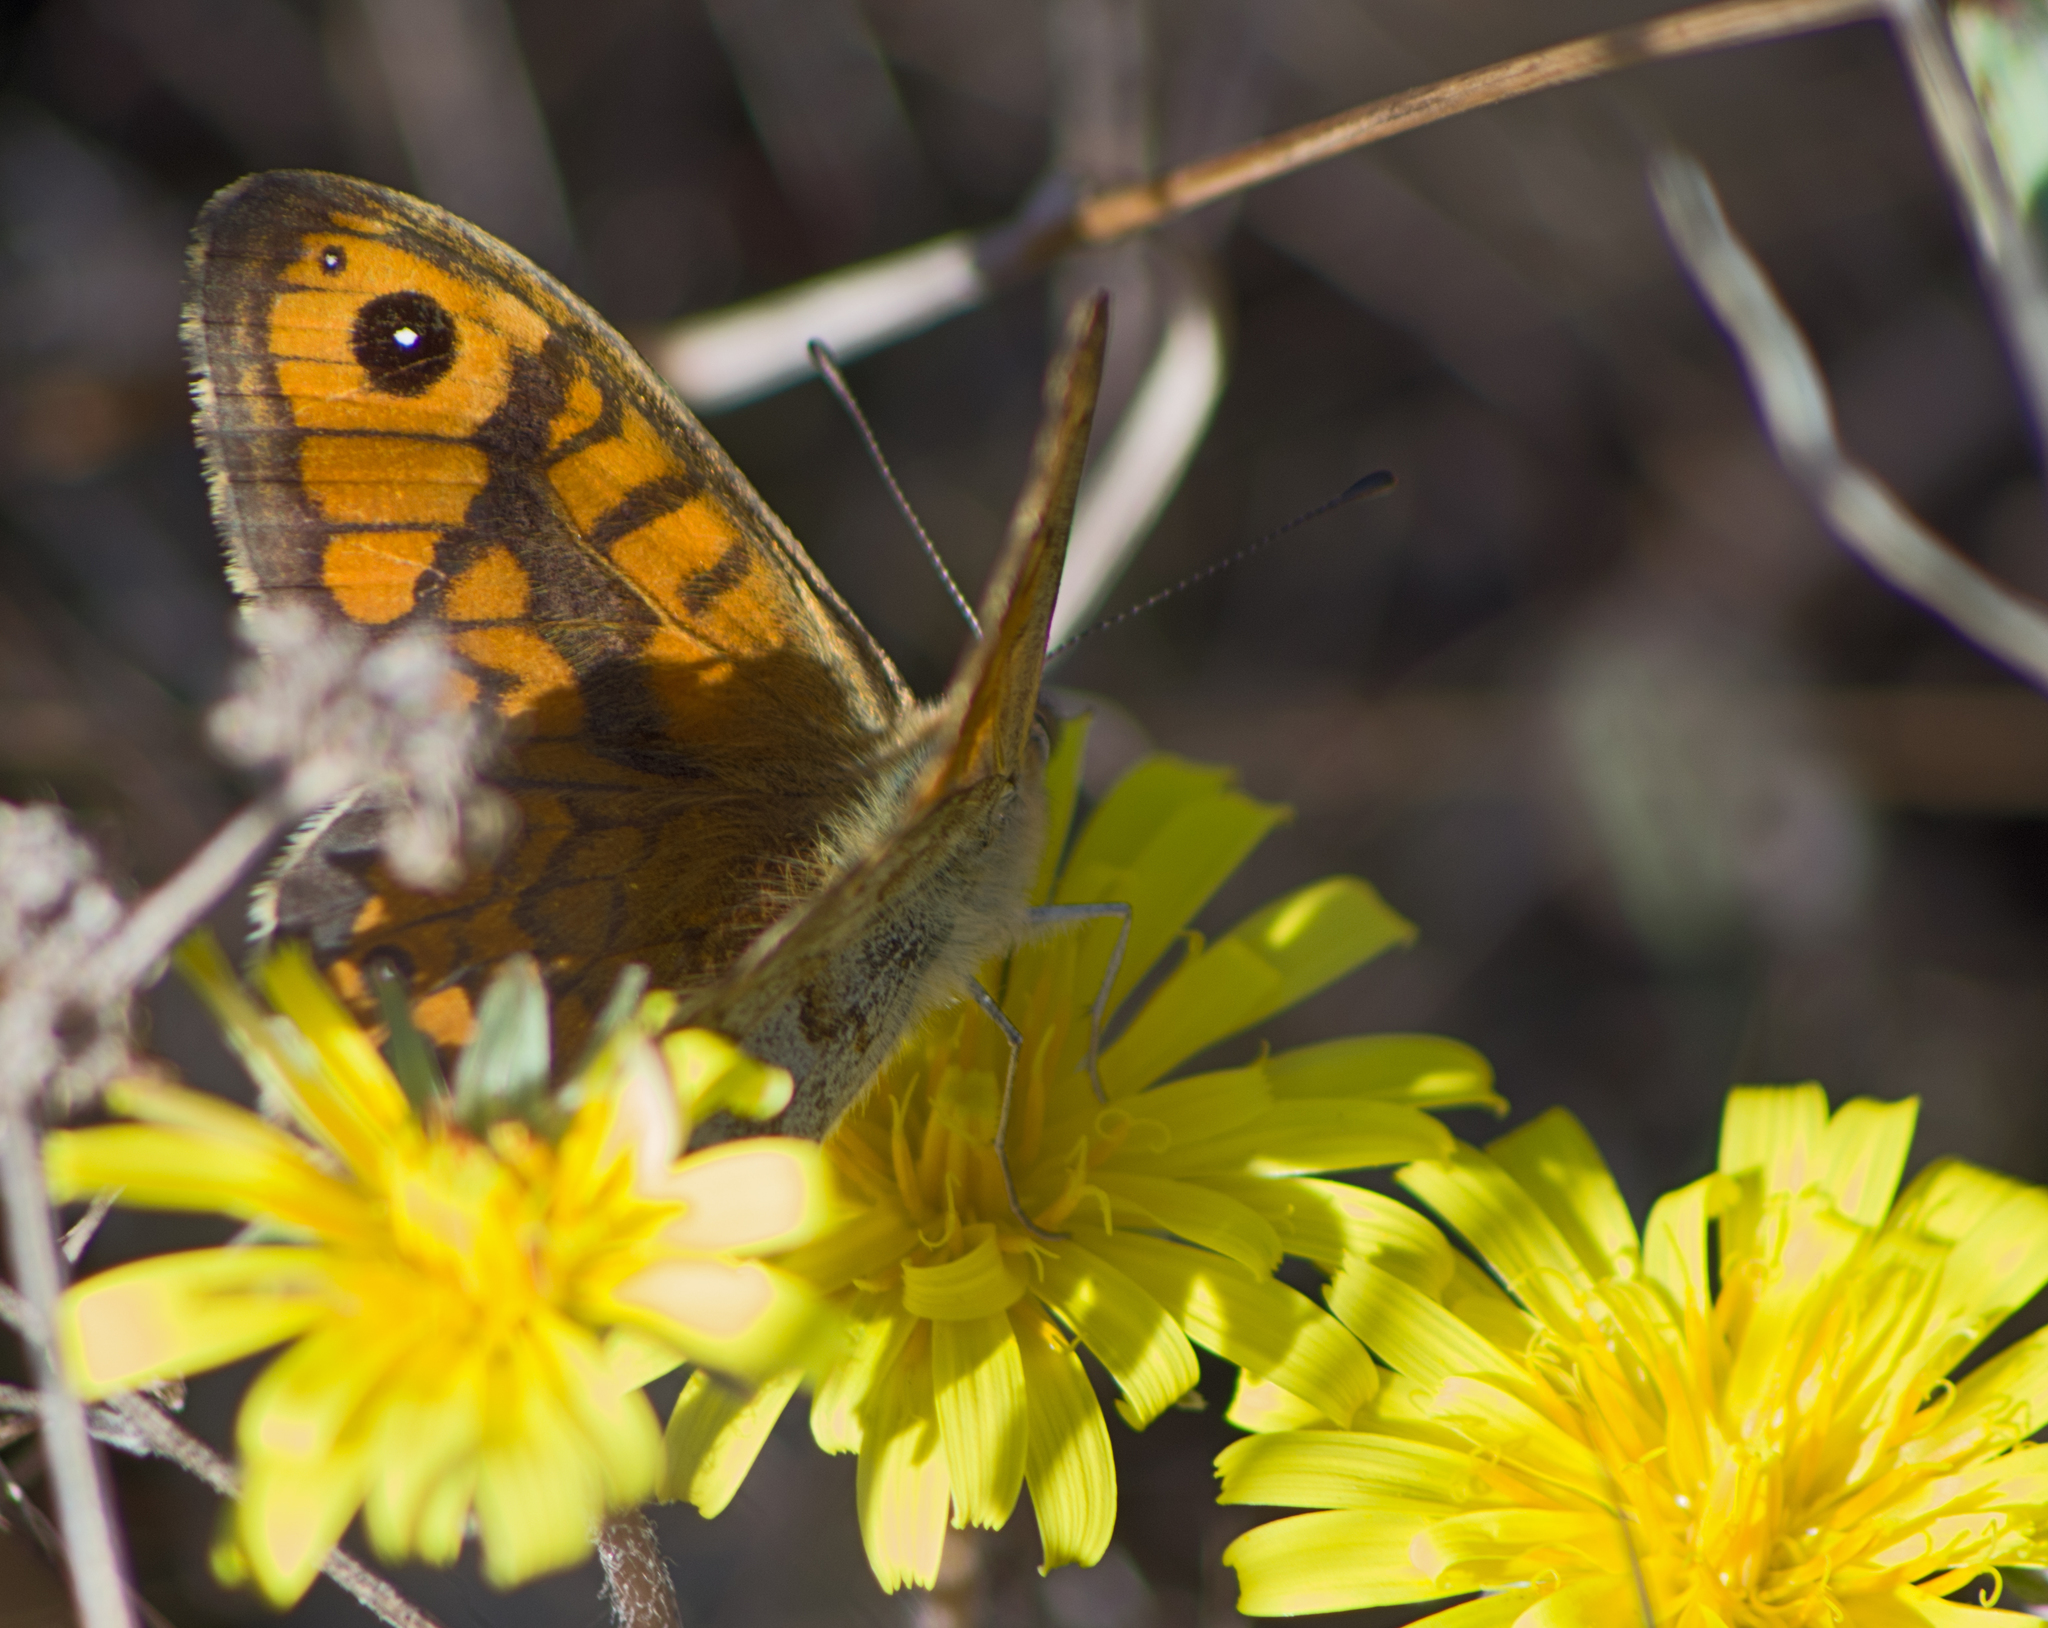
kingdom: Animalia
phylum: Arthropoda
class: Insecta
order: Lepidoptera
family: Nymphalidae
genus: Pararge
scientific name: Pararge Lasiommata megera
